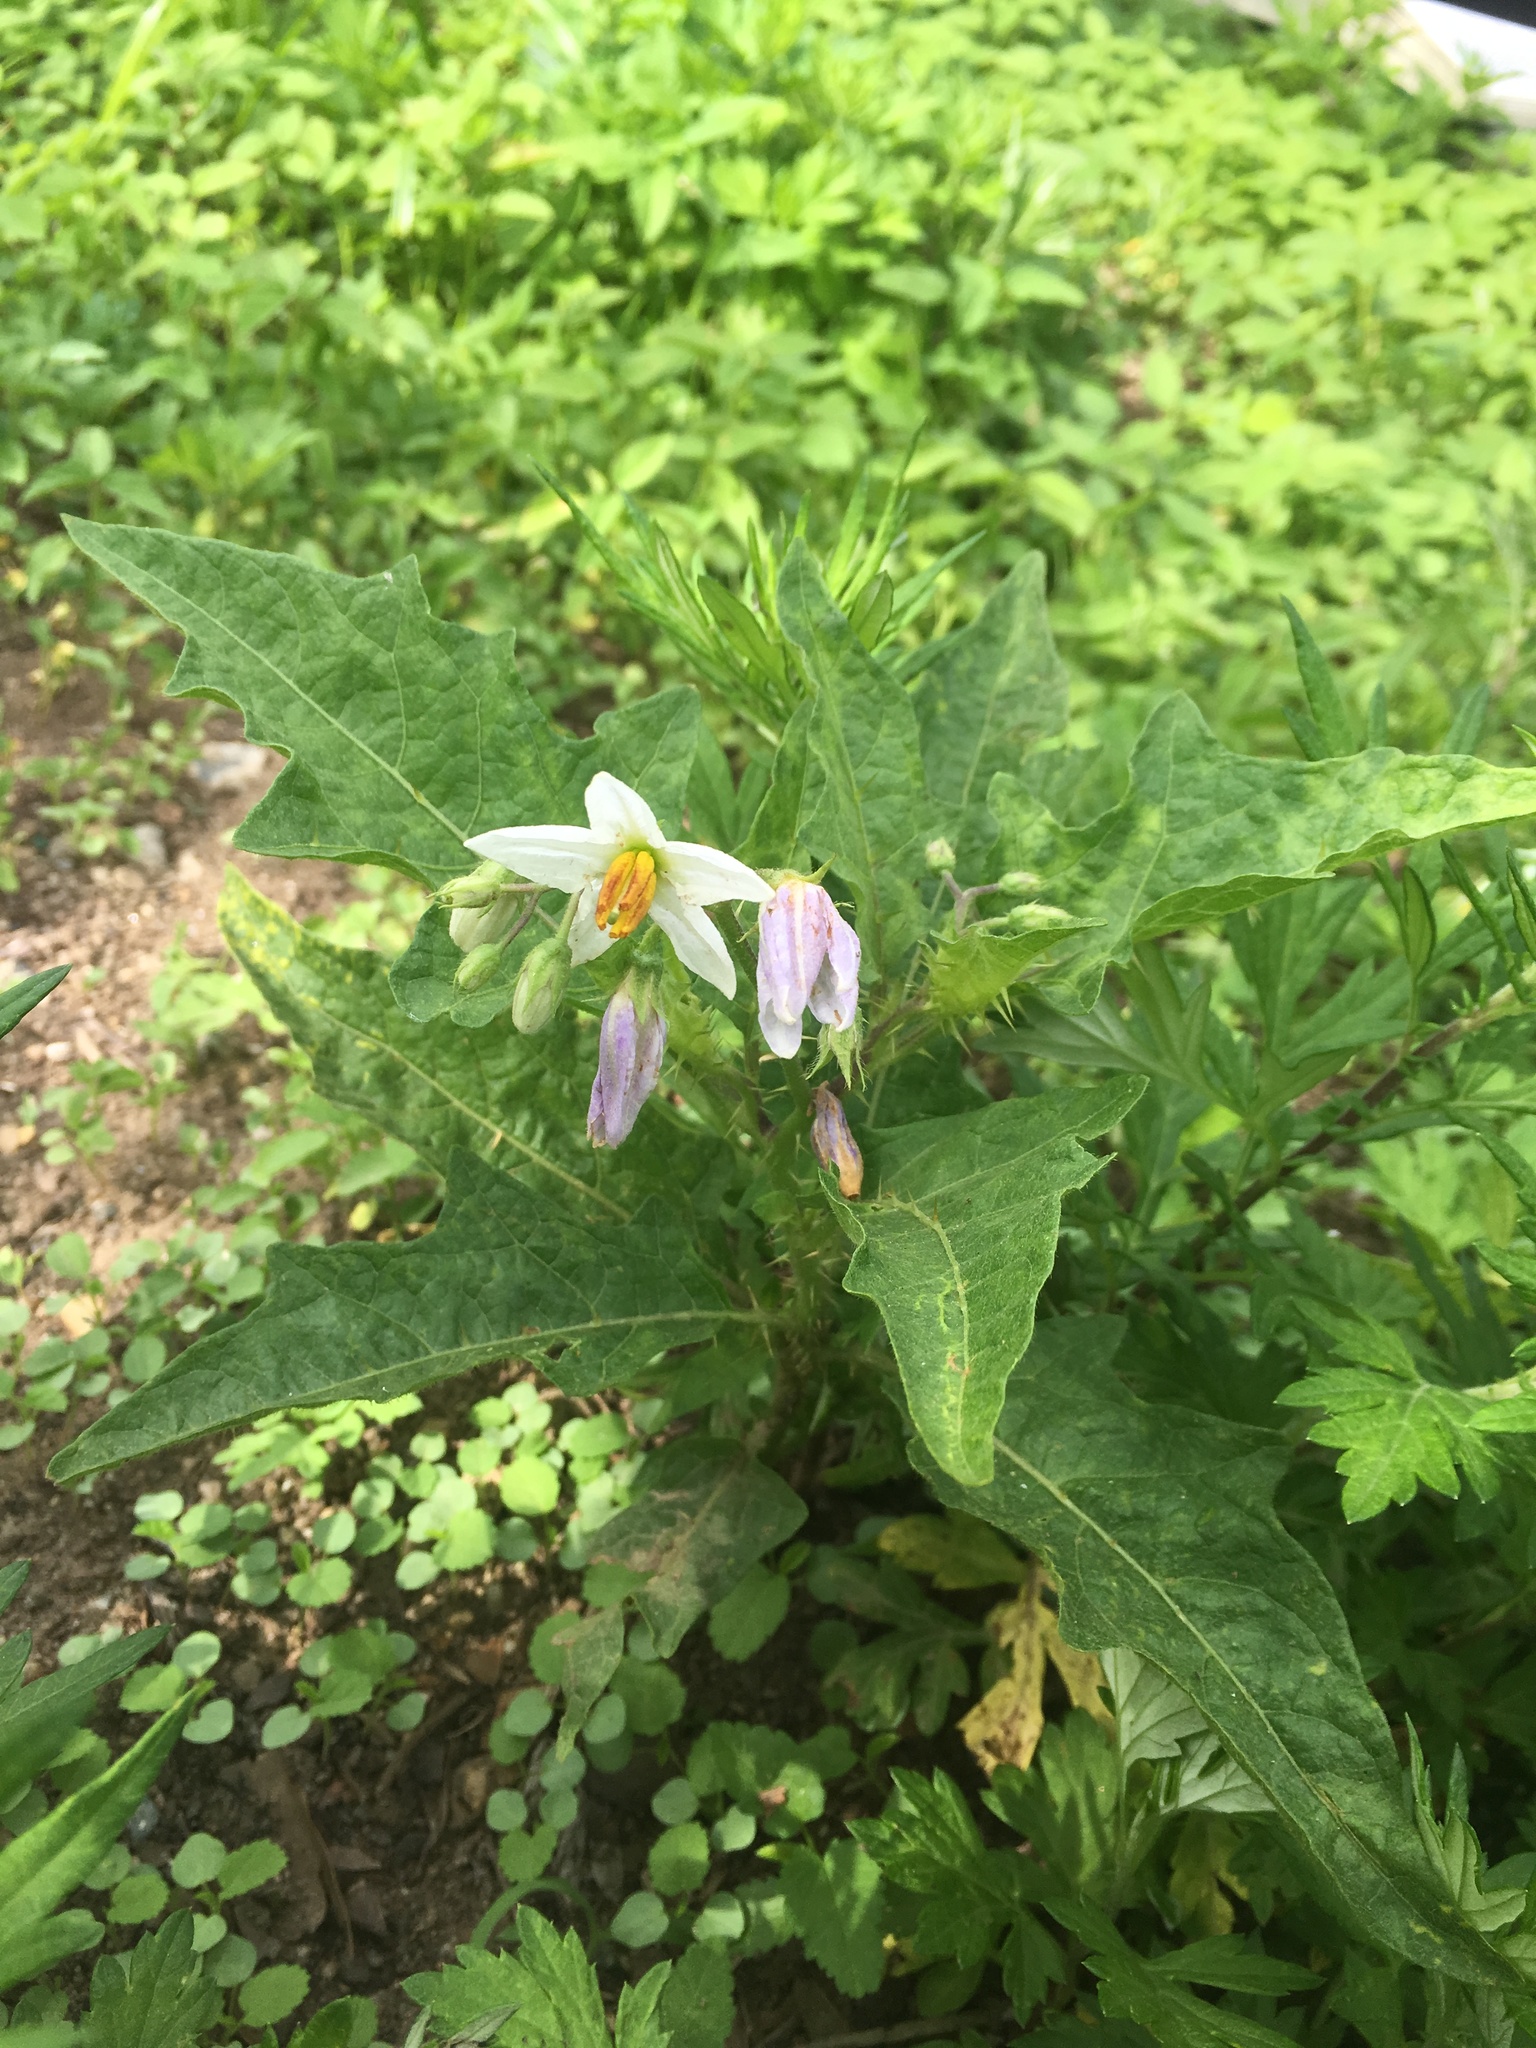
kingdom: Plantae
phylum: Tracheophyta
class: Magnoliopsida
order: Solanales
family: Solanaceae
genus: Solanum
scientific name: Solanum carolinense
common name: Horse-nettle
